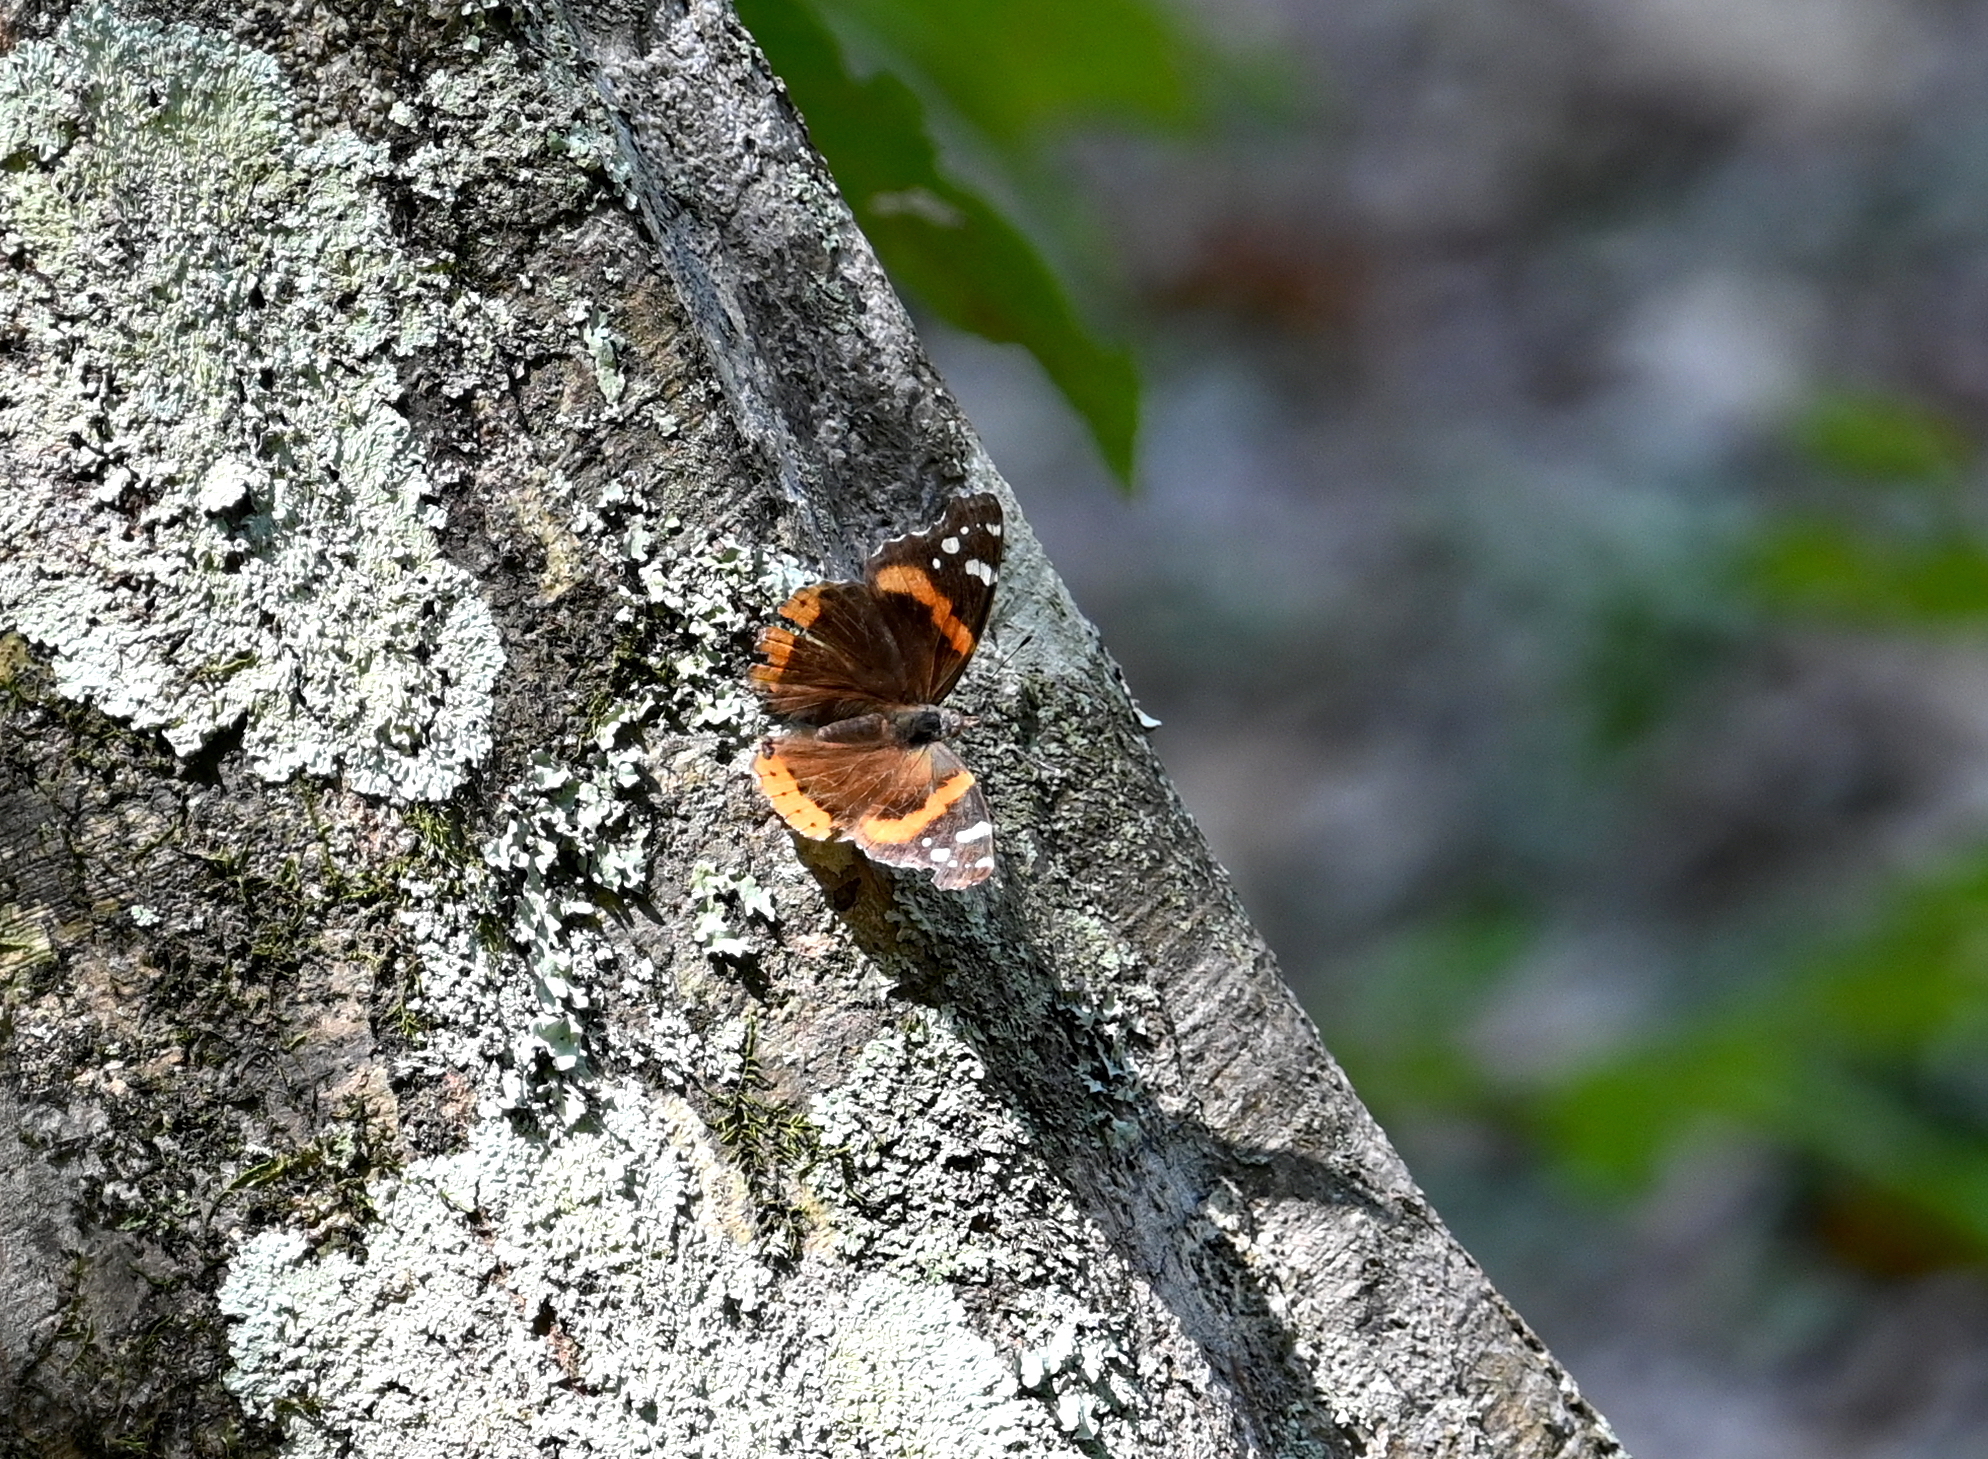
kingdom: Animalia
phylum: Arthropoda
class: Insecta
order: Lepidoptera
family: Nymphalidae
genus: Vanessa
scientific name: Vanessa atalanta
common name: Red admiral
